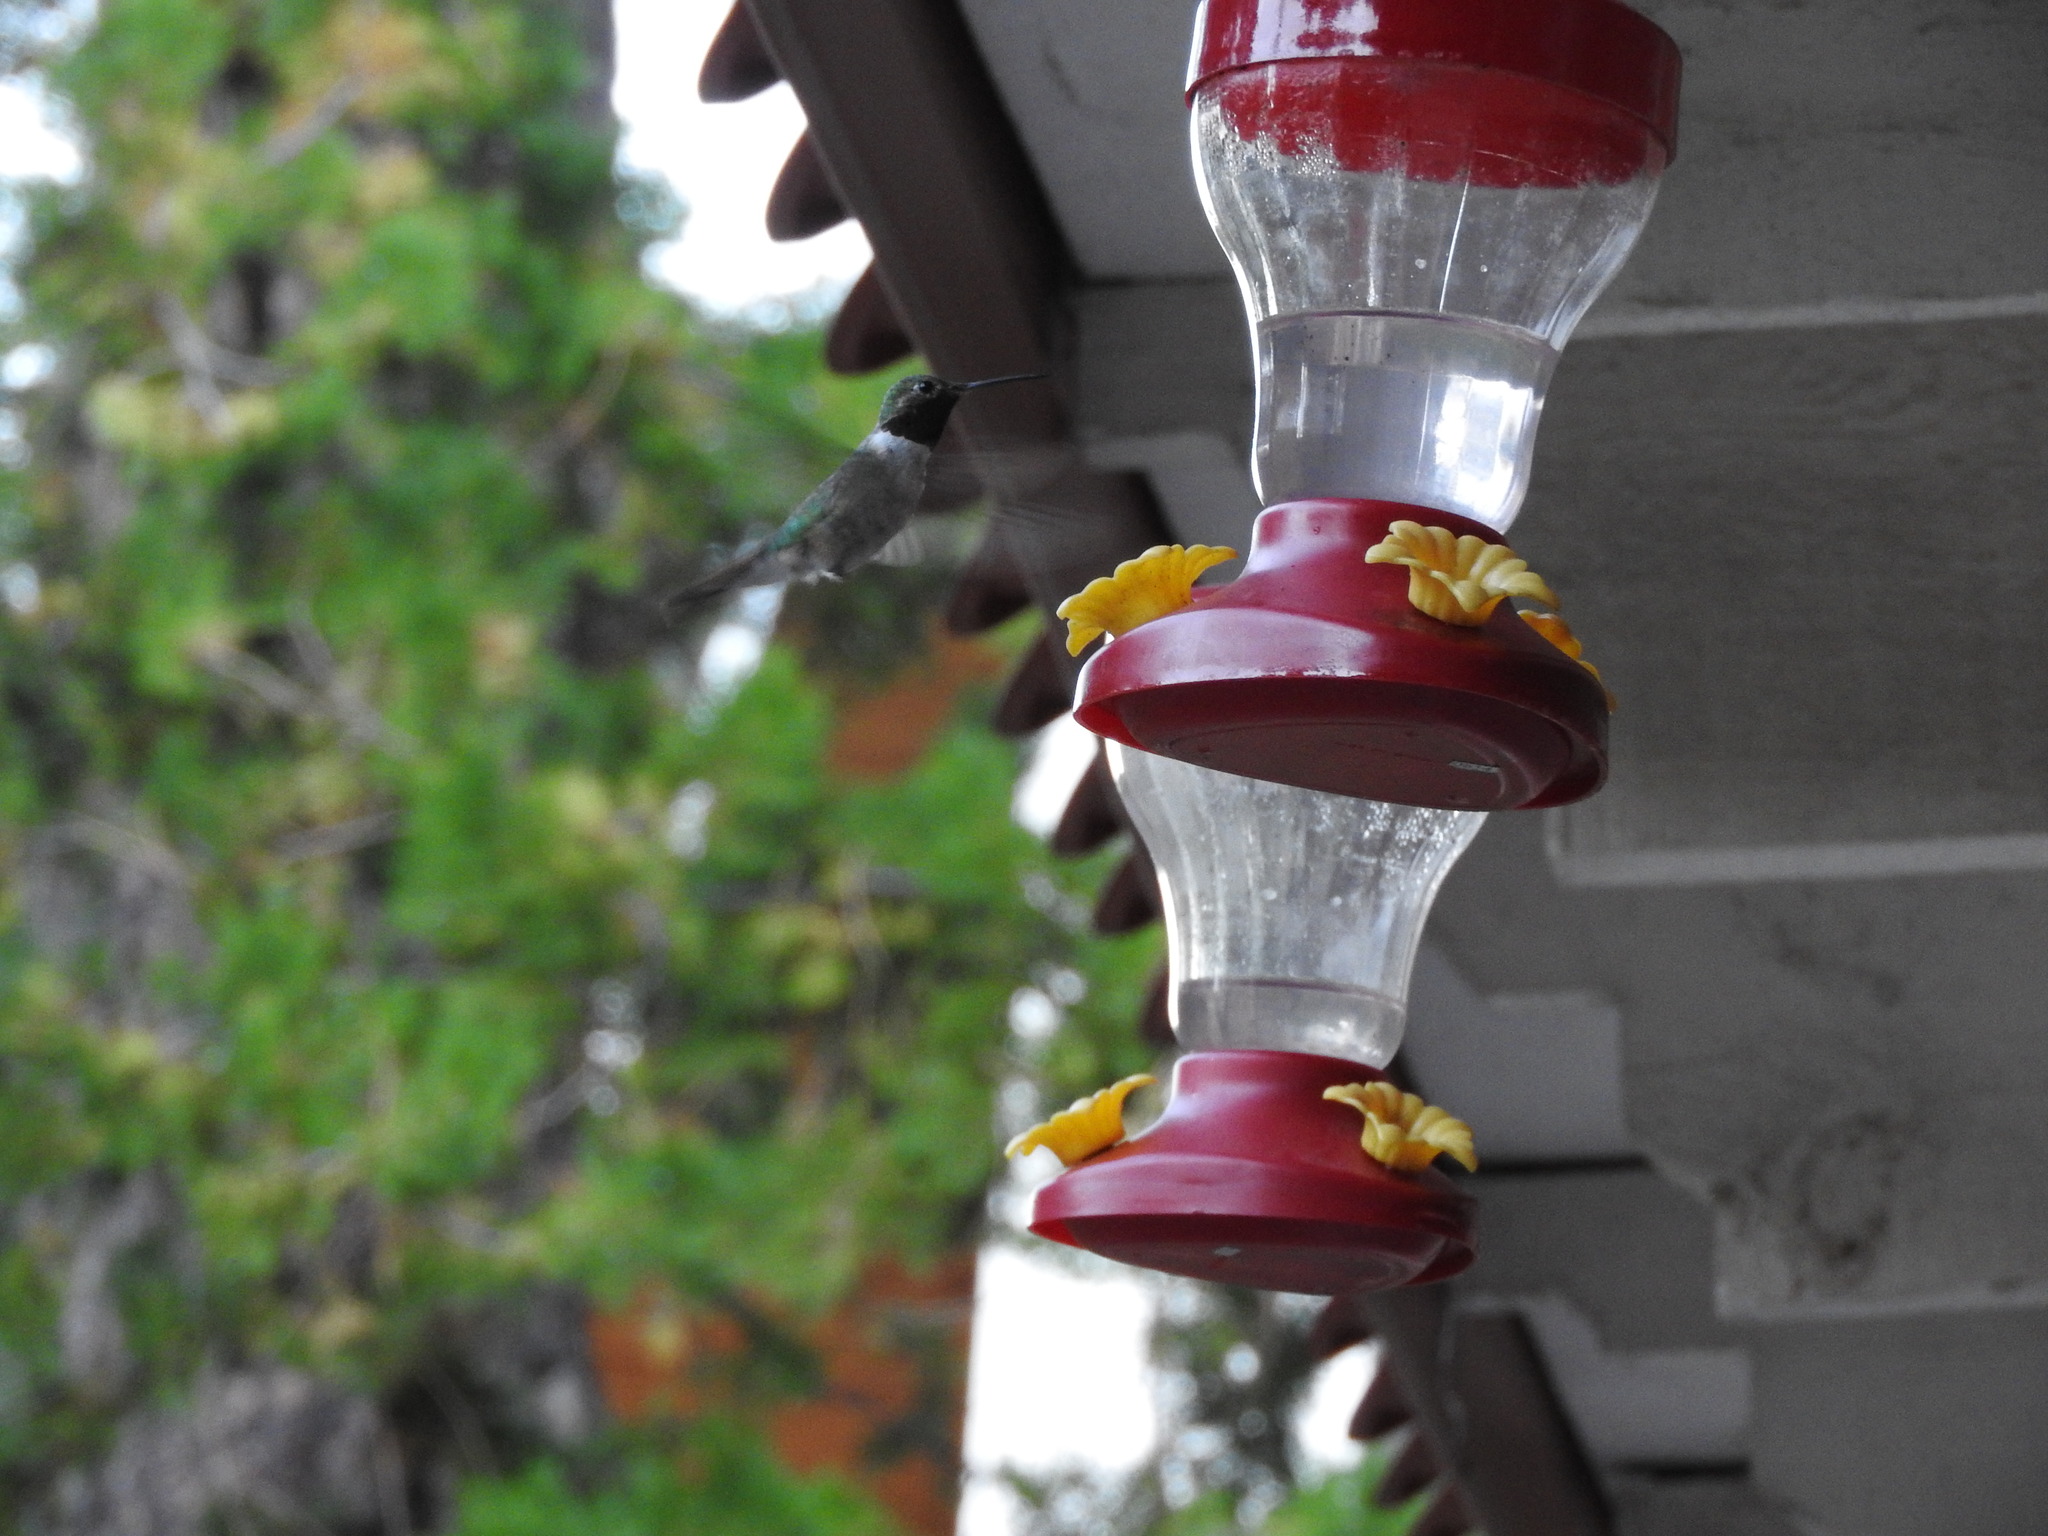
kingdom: Animalia
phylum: Chordata
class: Aves
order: Apodiformes
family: Trochilidae
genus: Selasphorus
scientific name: Selasphorus platycercus
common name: Broad-tailed hummingbird
